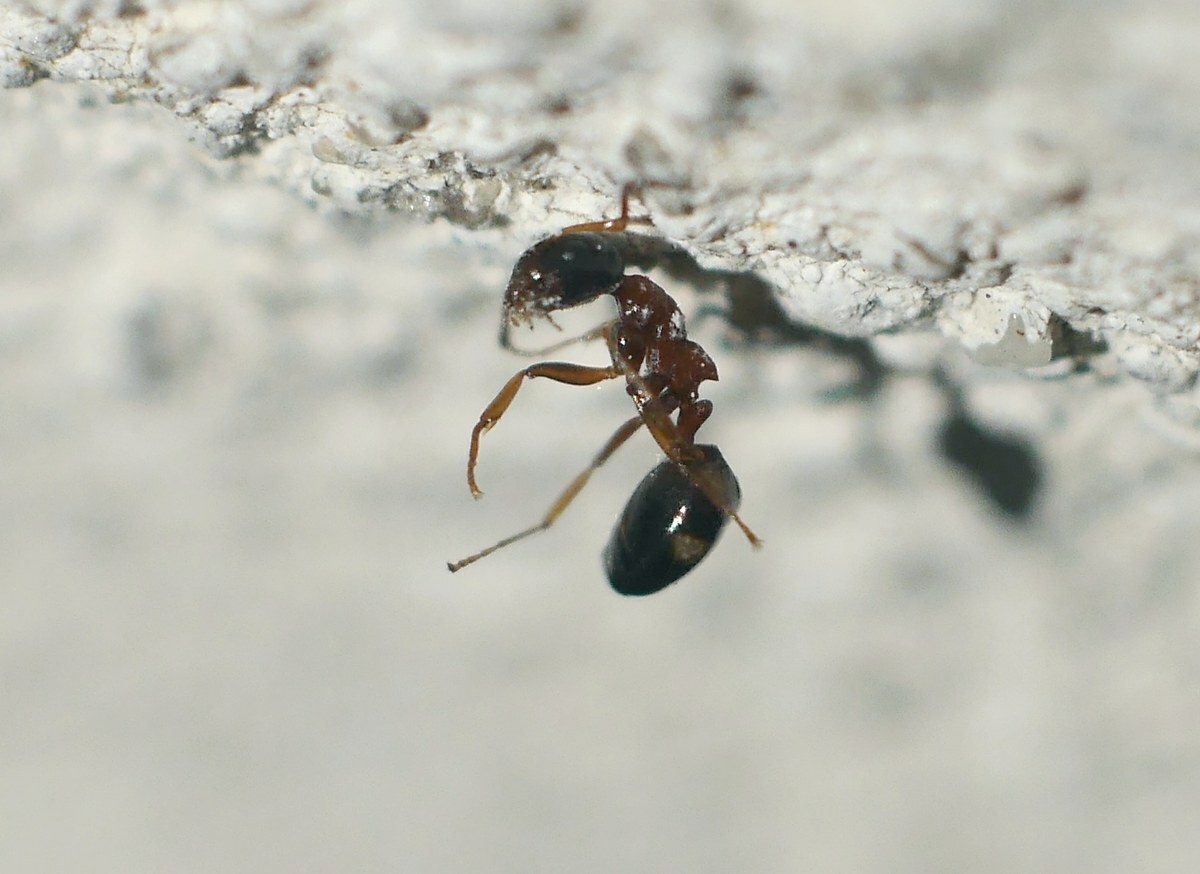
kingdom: Animalia
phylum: Arthropoda
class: Insecta
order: Hymenoptera
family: Formicidae
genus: Dolichoderus
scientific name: Dolichoderus quadripunctatus
